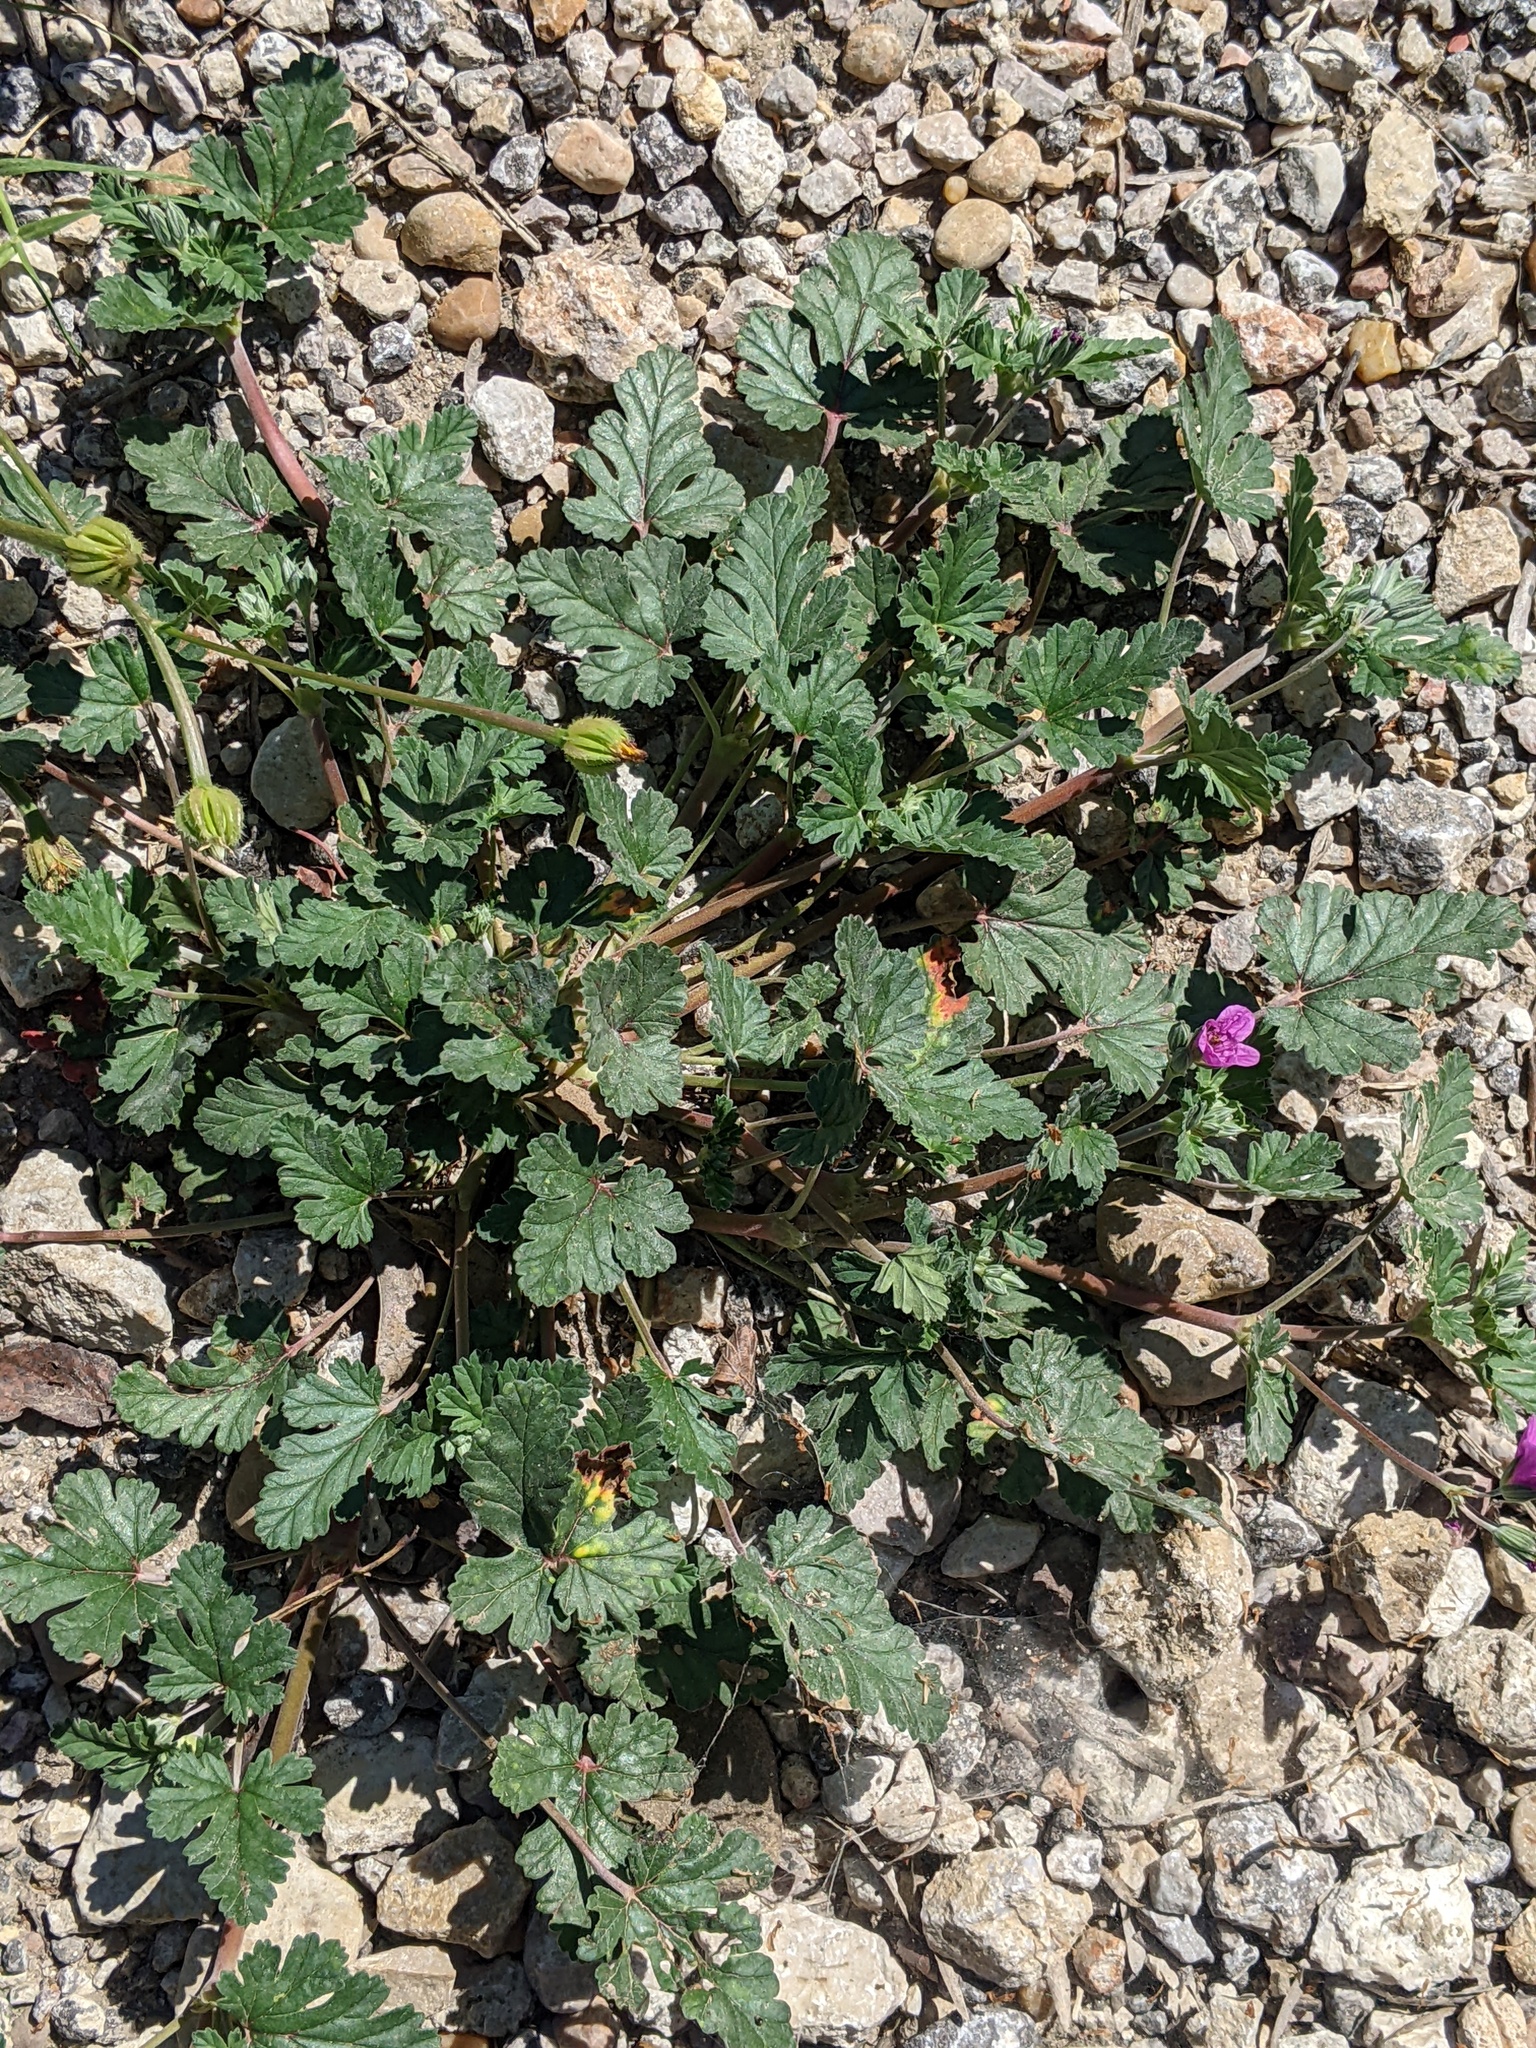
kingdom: Plantae
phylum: Tracheophyta
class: Magnoliopsida
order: Geraniales
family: Geraniaceae
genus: Erodium
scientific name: Erodium texanum
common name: Texas stork's-bill
